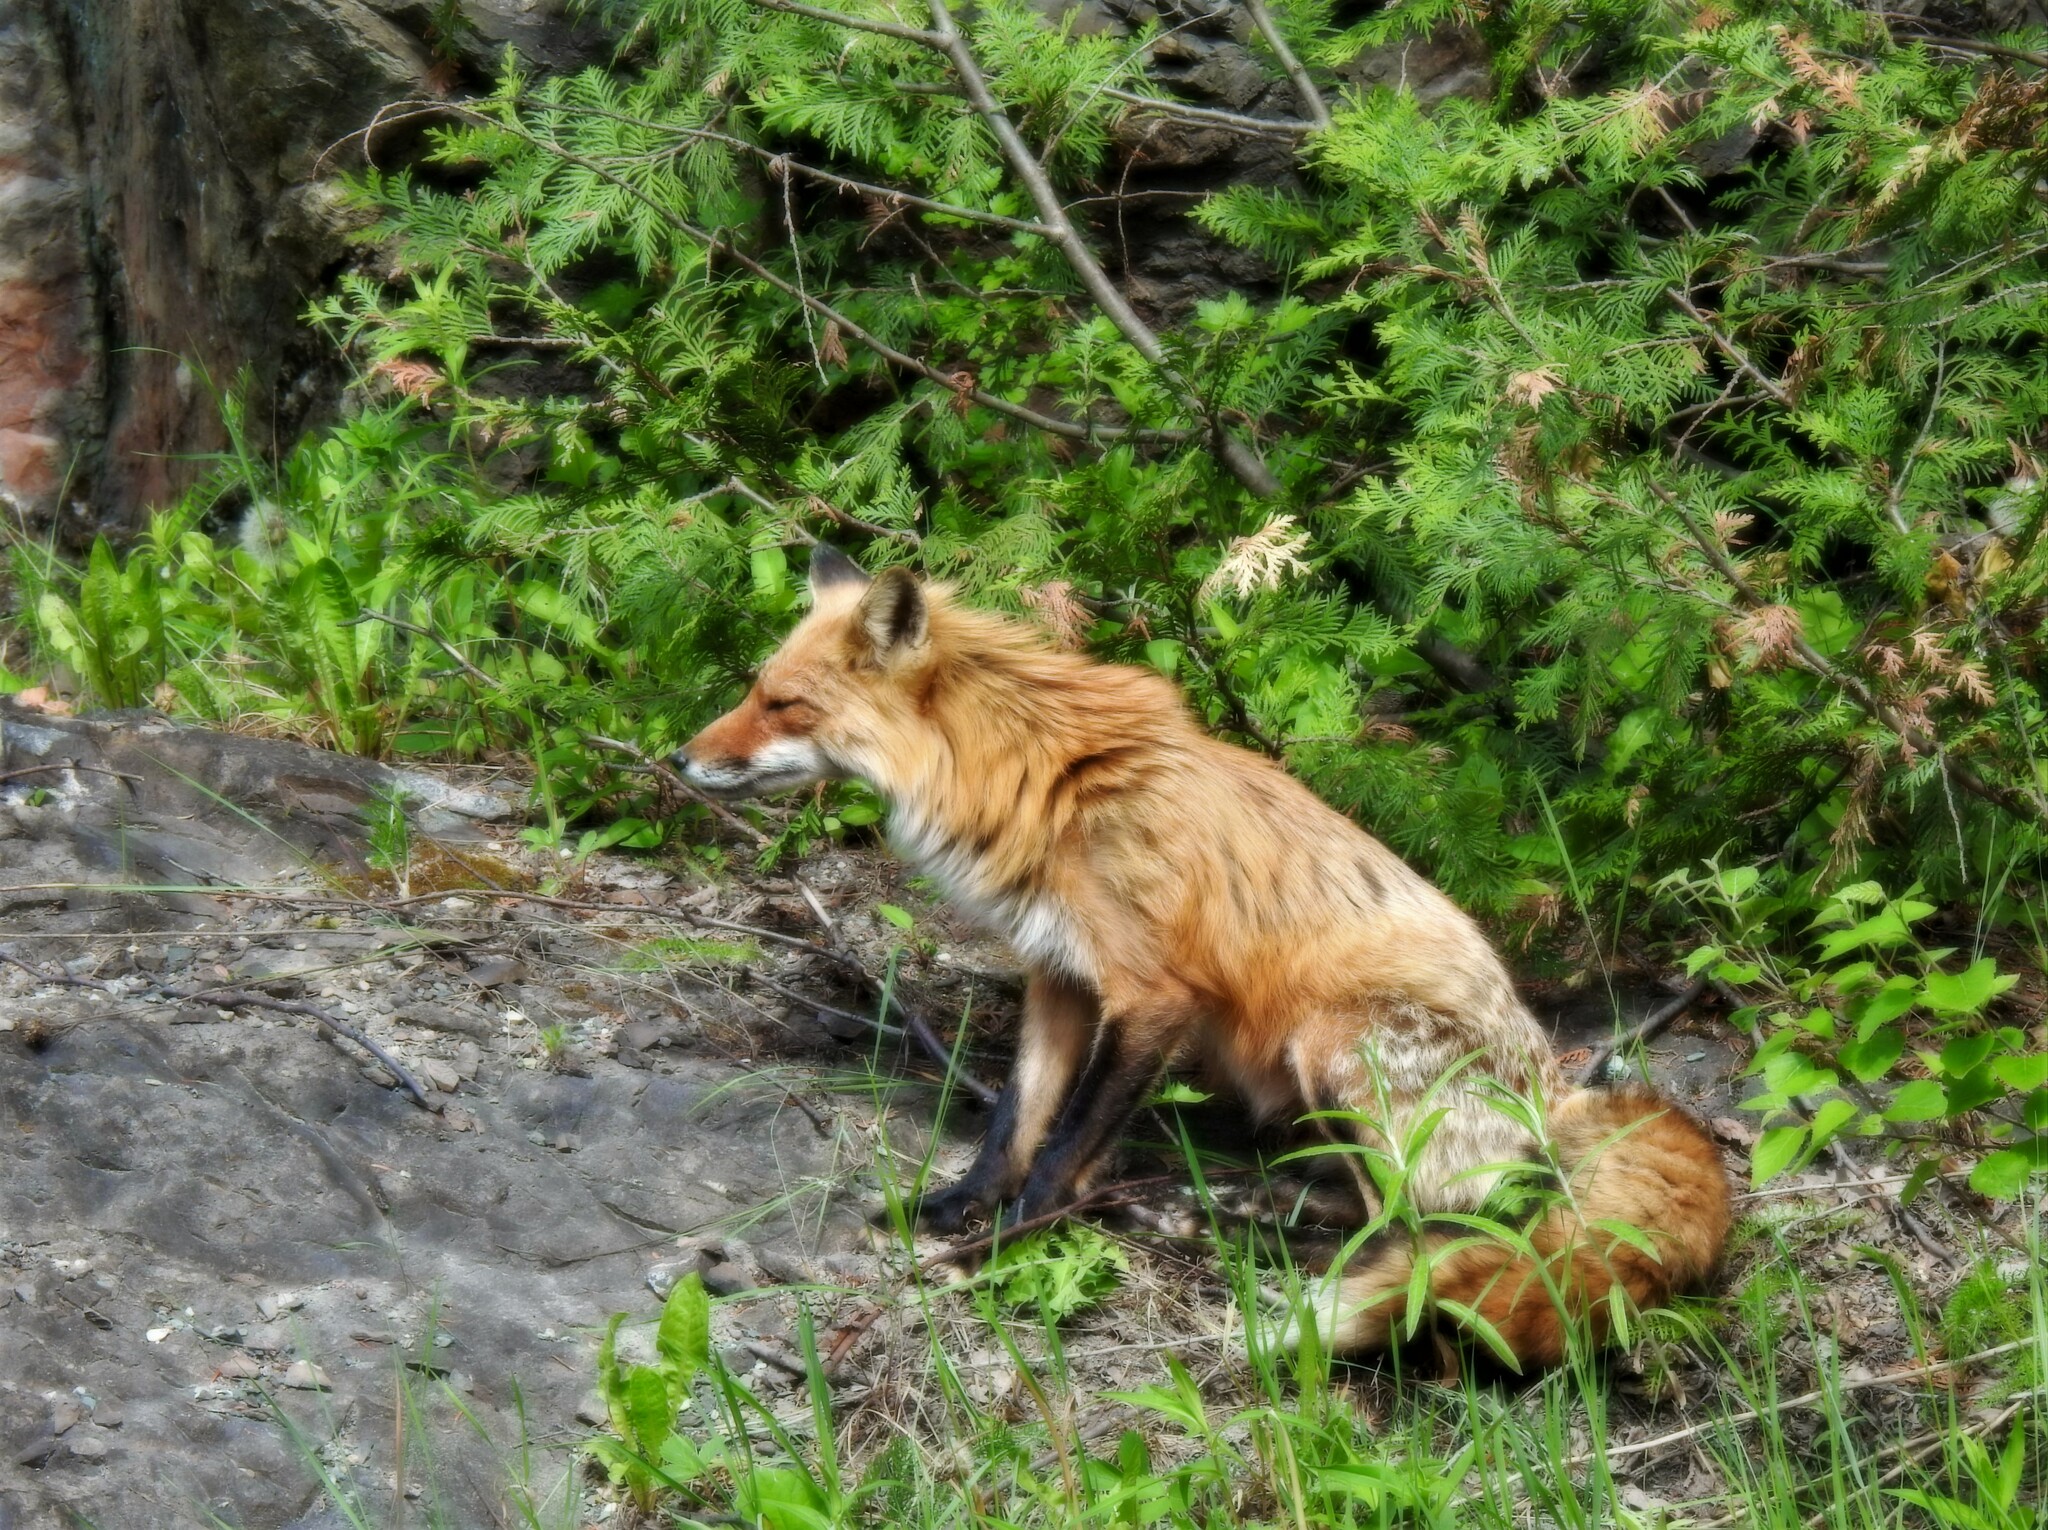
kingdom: Animalia
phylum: Chordata
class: Mammalia
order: Carnivora
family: Canidae
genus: Vulpes
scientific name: Vulpes vulpes
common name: Red fox
